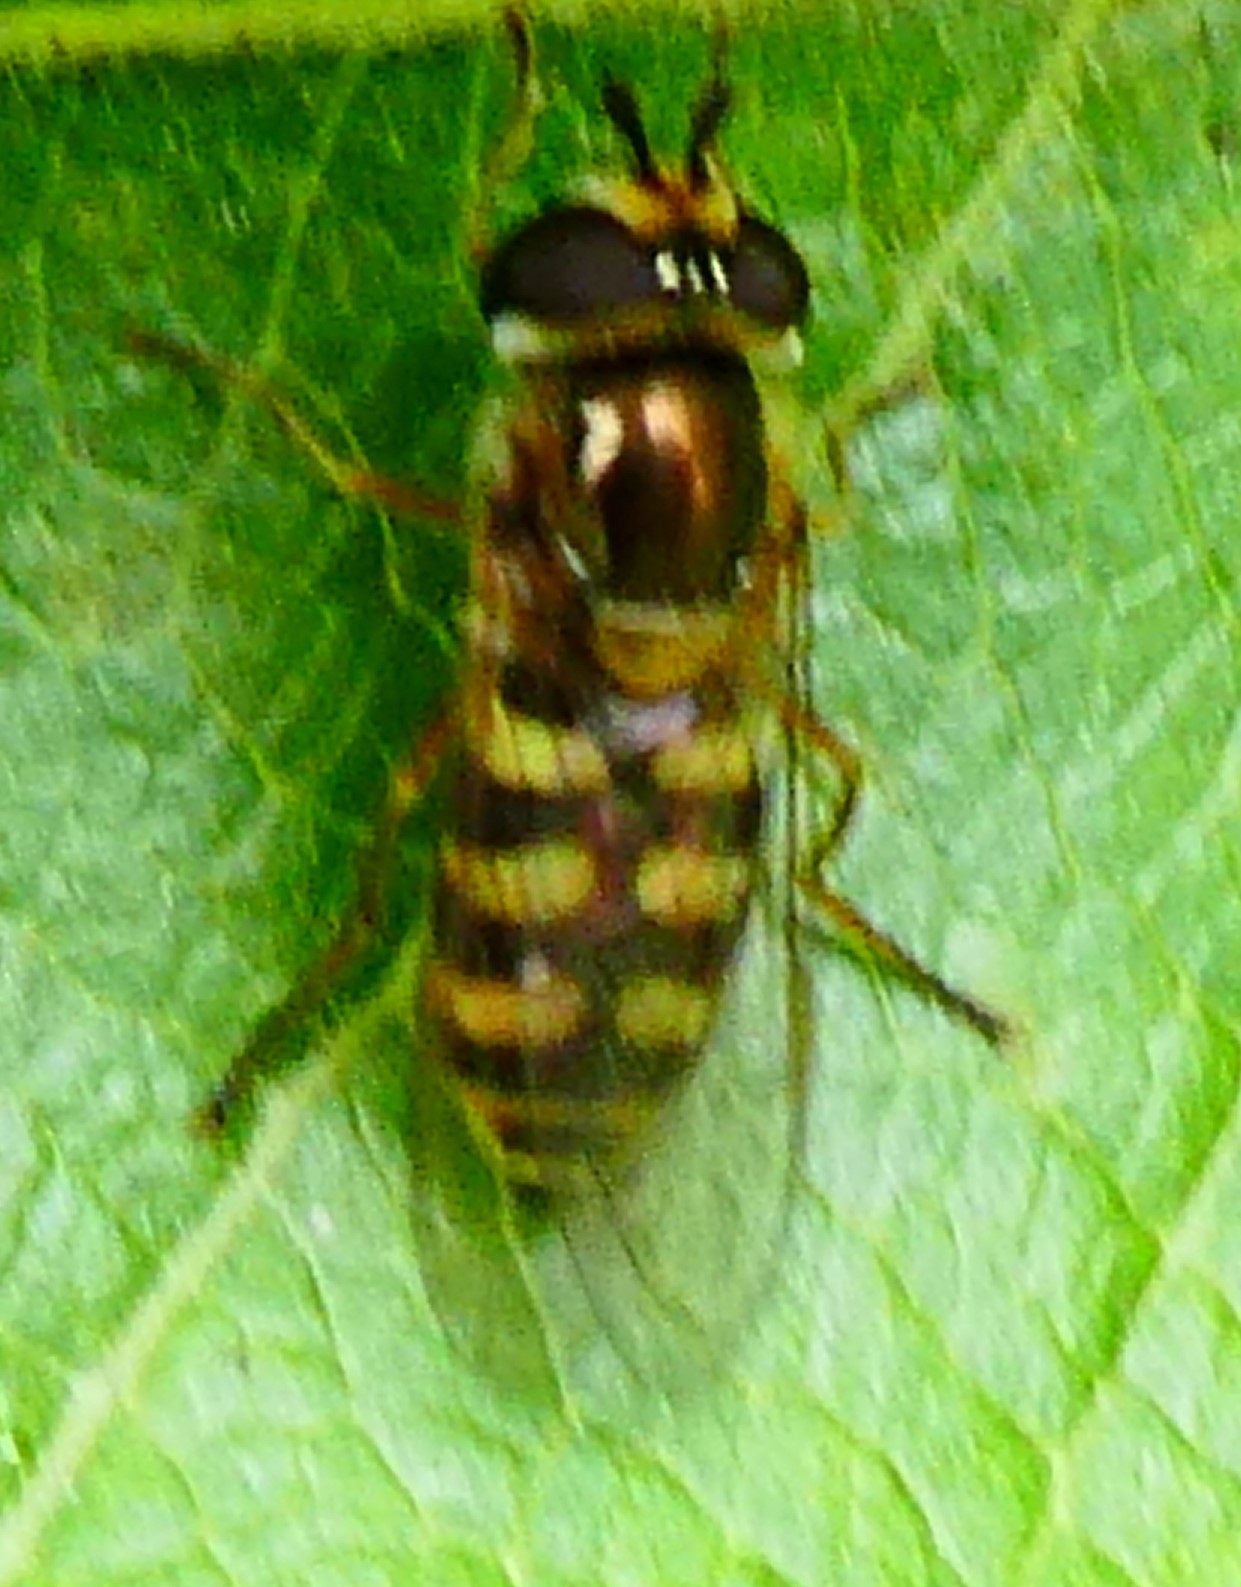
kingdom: Animalia
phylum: Arthropoda
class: Insecta
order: Diptera
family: Syrphidae
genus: Eupeodes
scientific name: Eupeodes corollae
